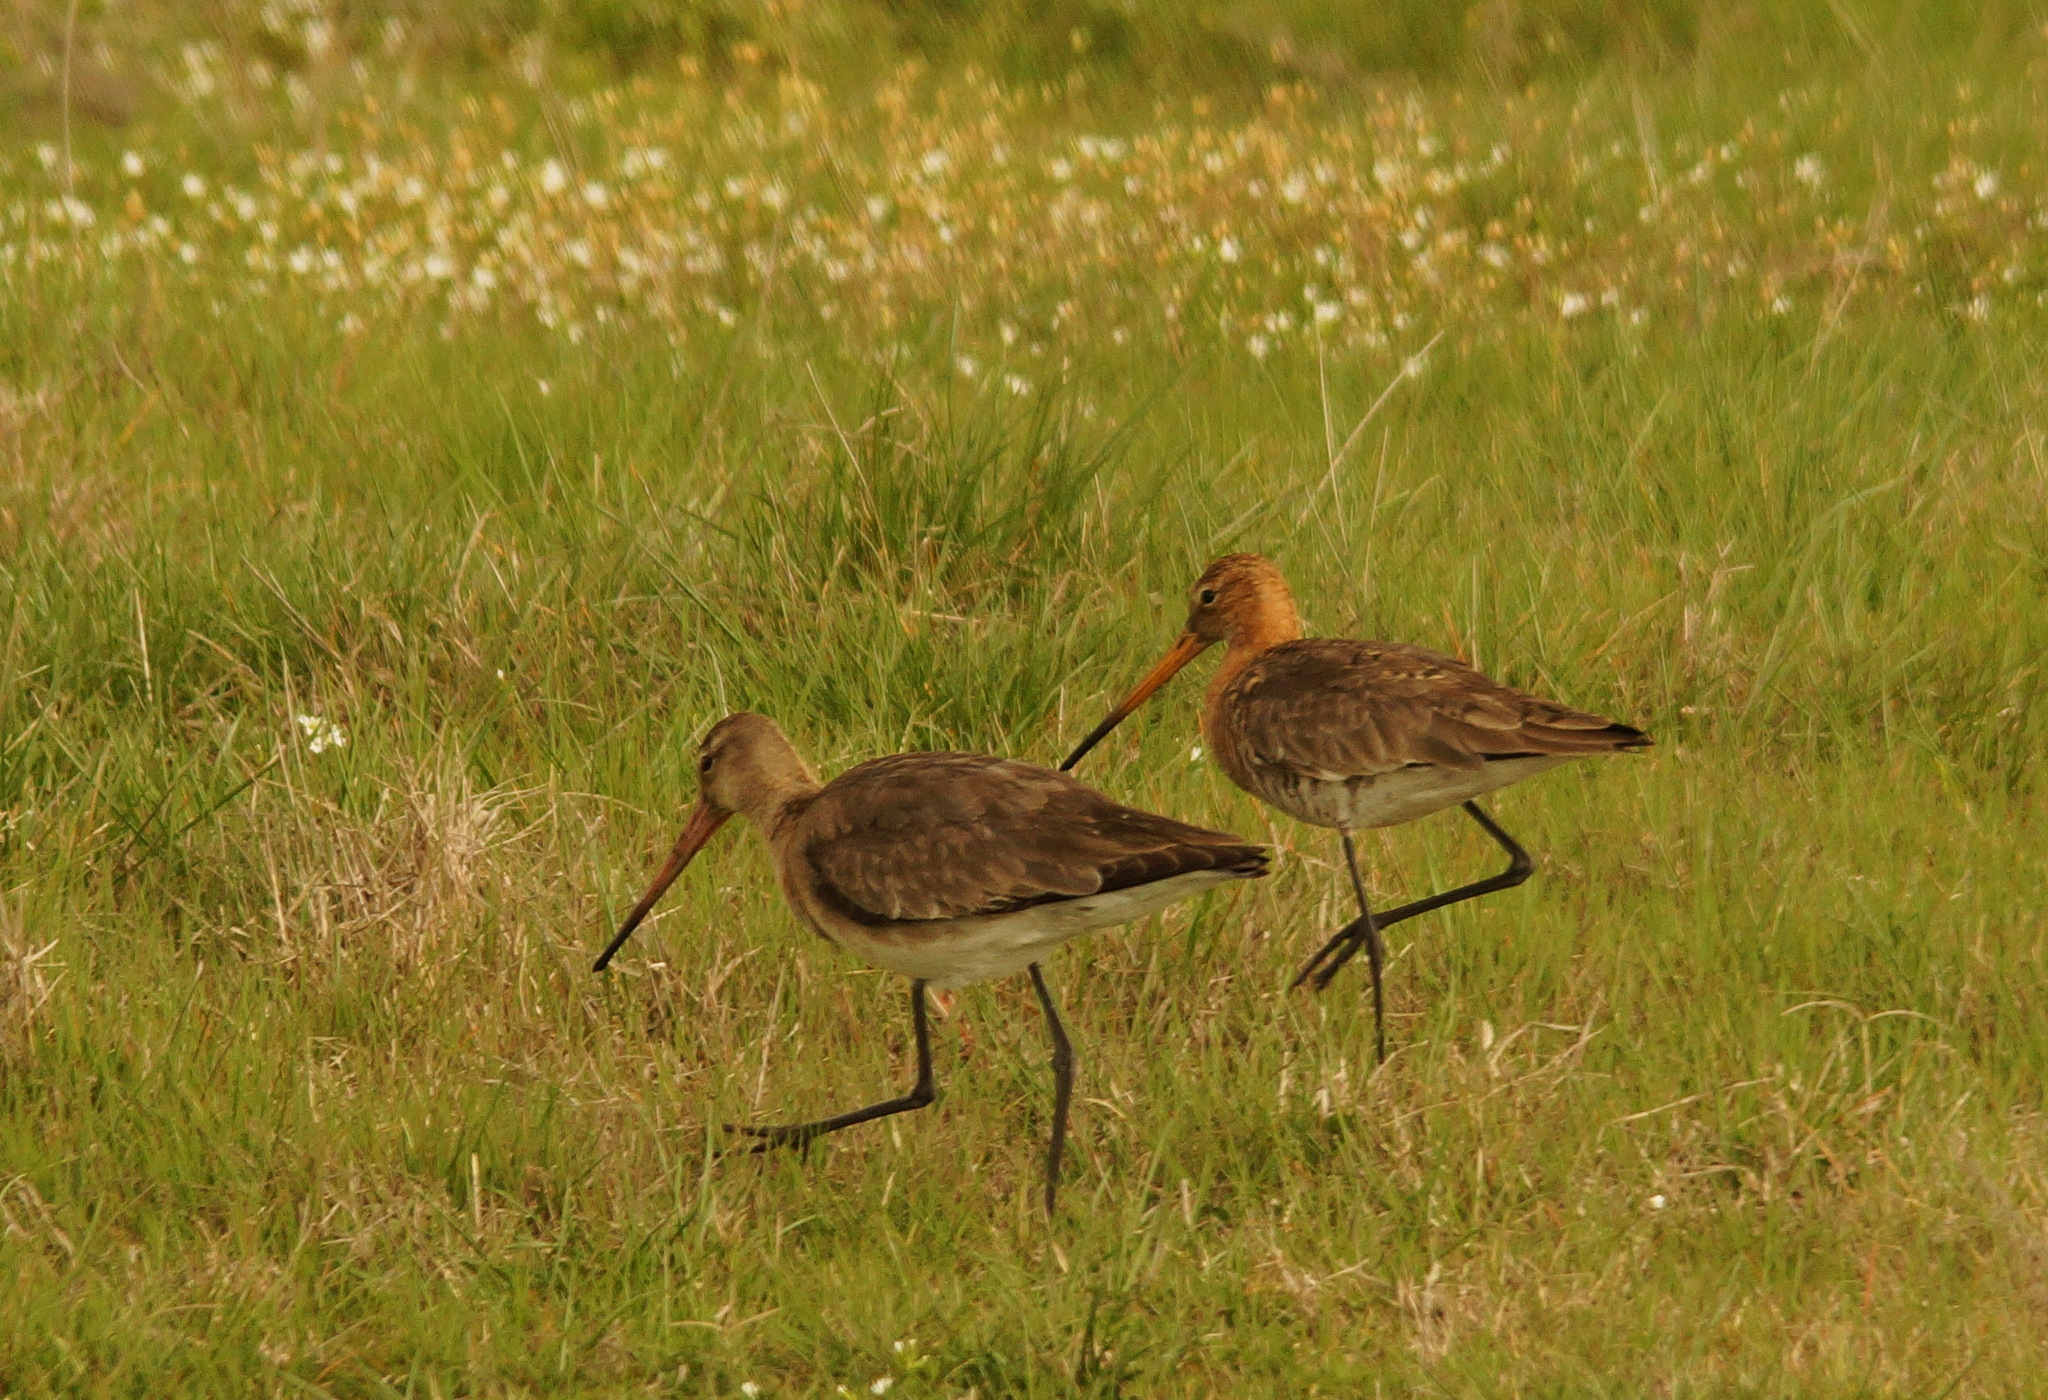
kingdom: Animalia
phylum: Chordata
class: Aves
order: Charadriiformes
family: Scolopacidae
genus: Limosa
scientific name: Limosa limosa
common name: Black-tailed godwit
